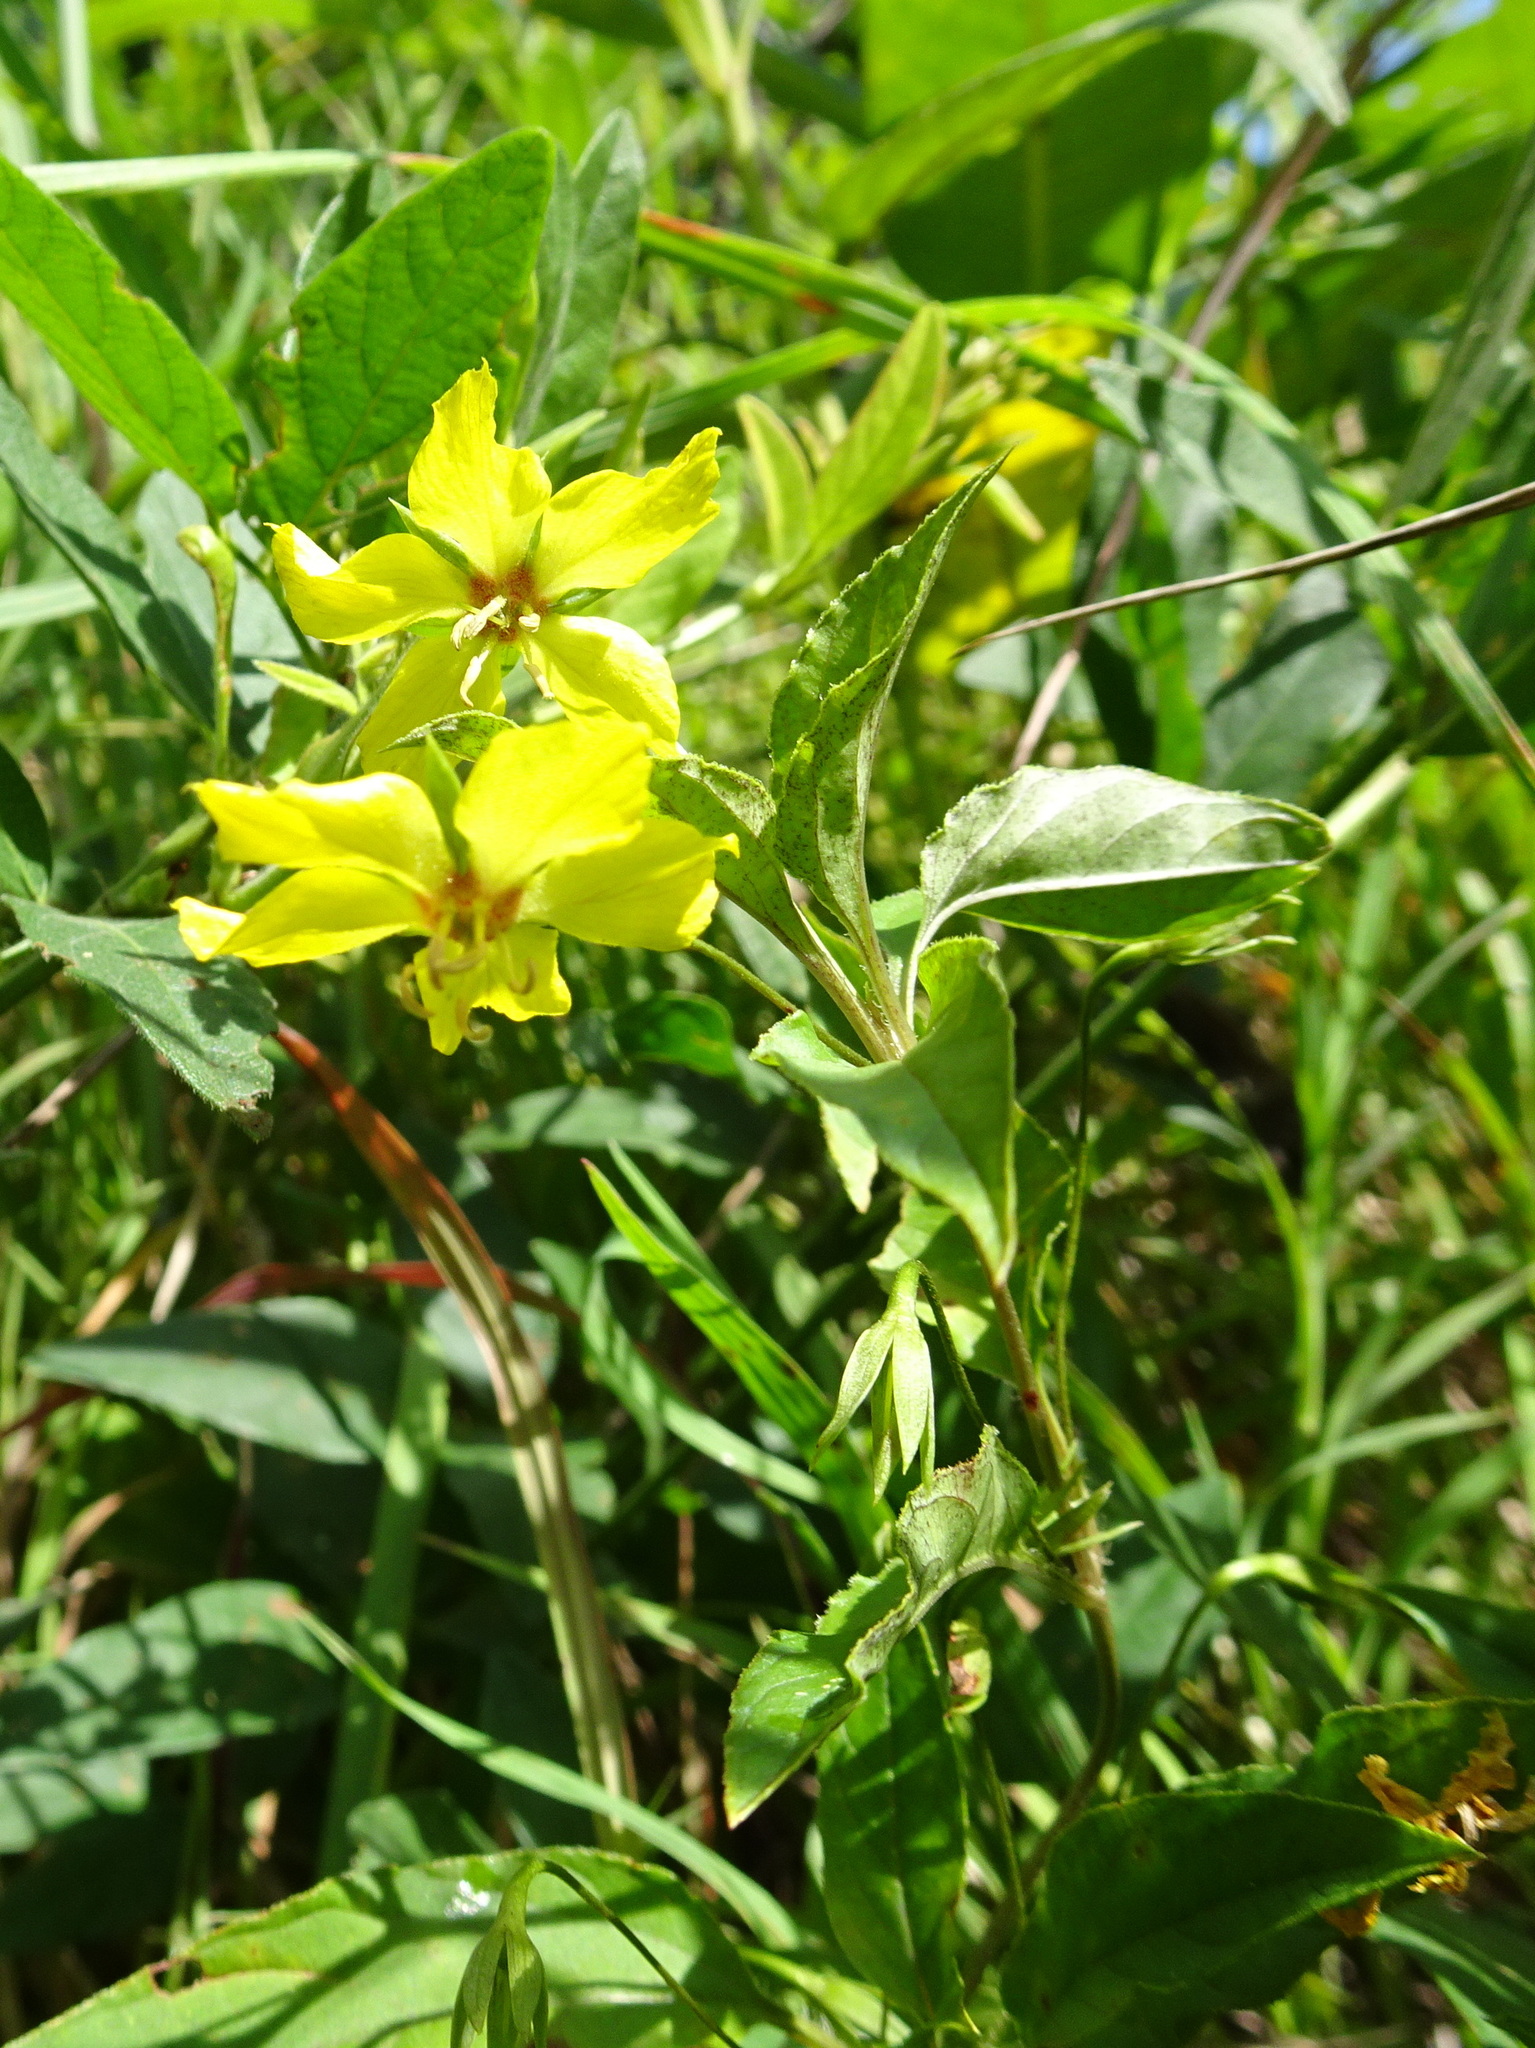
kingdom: Plantae
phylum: Tracheophyta
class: Magnoliopsida
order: Ericales
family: Primulaceae
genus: Lysimachia
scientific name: Lysimachia ciliata
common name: Fringed loosestrife
